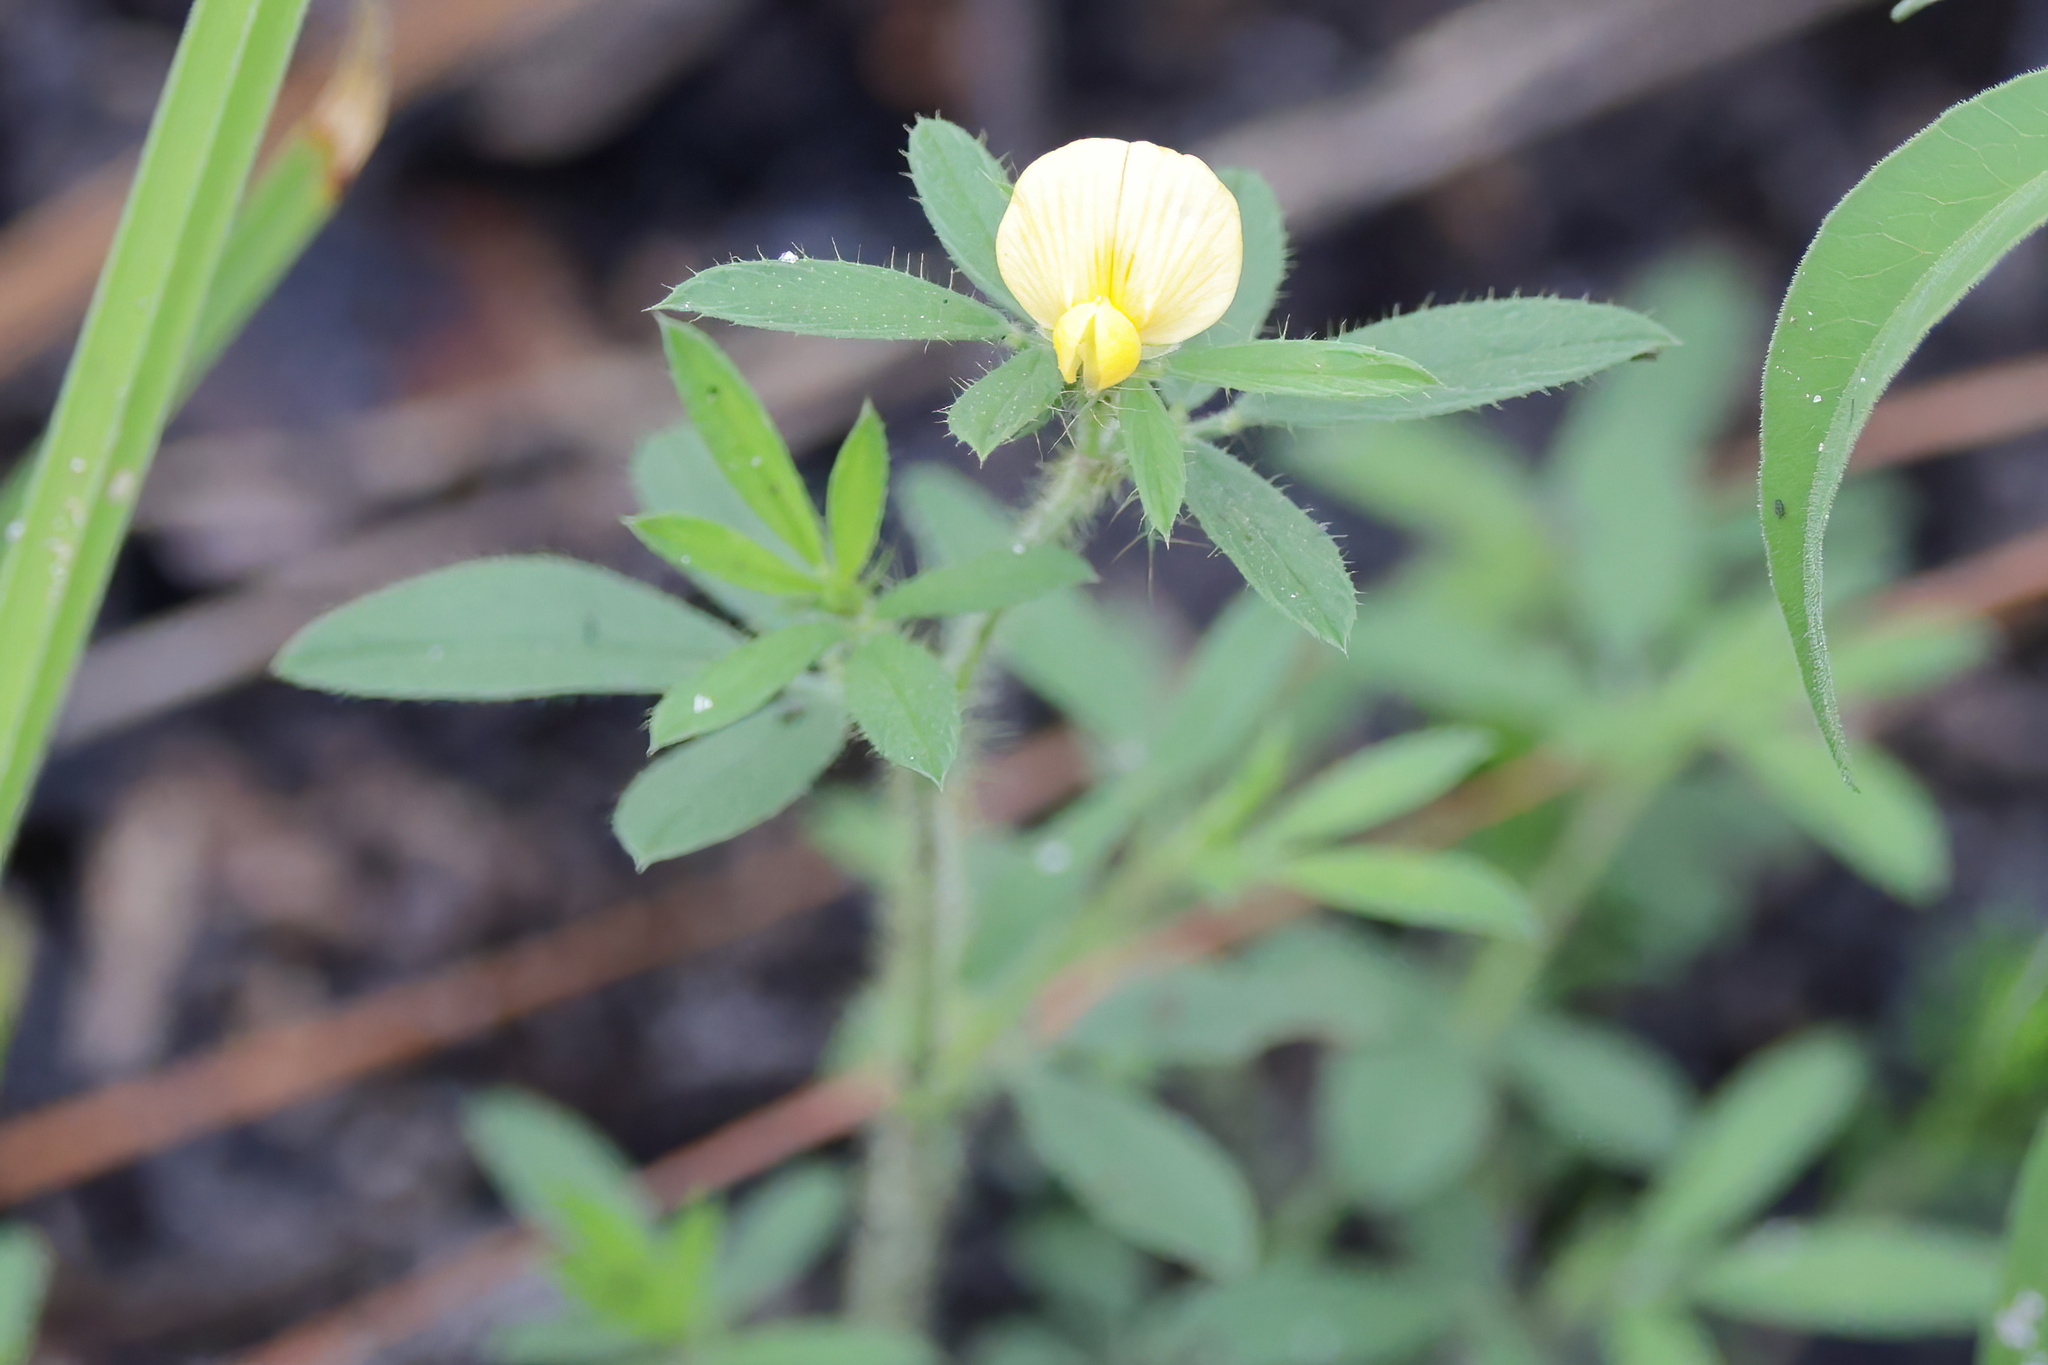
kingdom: Plantae
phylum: Tracheophyta
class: Magnoliopsida
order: Fabales
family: Fabaceae
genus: Stylosanthes
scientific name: Stylosanthes biflora
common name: Two-flower pencil-flower
